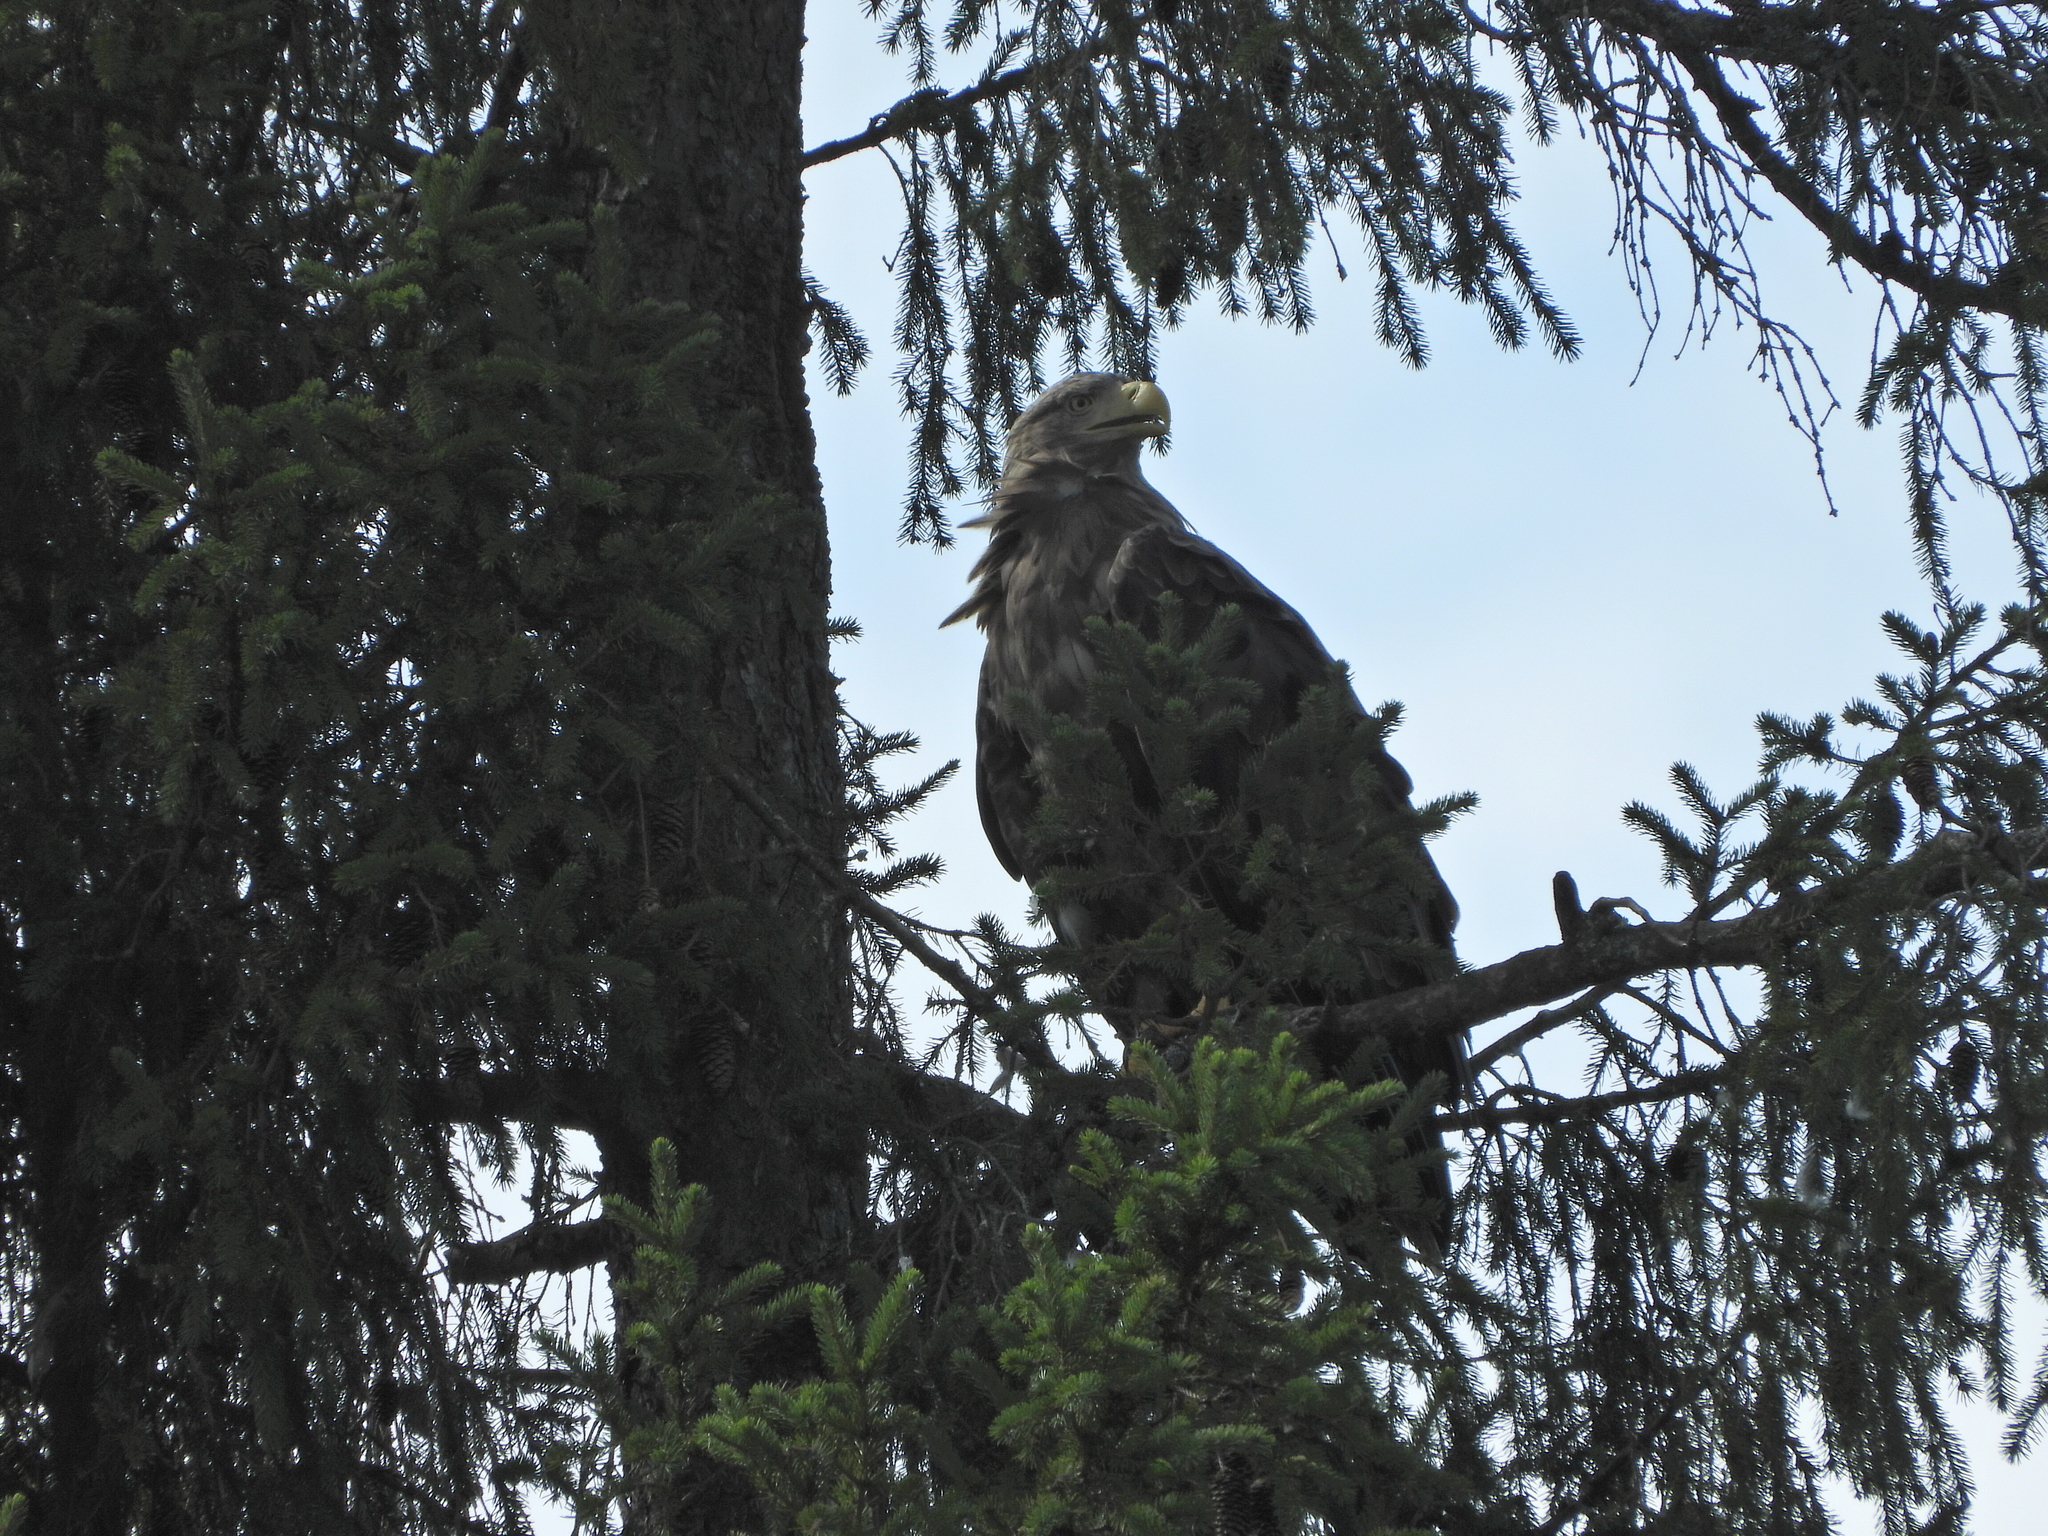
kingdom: Animalia
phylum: Chordata
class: Aves
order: Accipitriformes
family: Accipitridae
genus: Haliaeetus
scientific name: Haliaeetus albicilla
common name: White-tailed eagle
